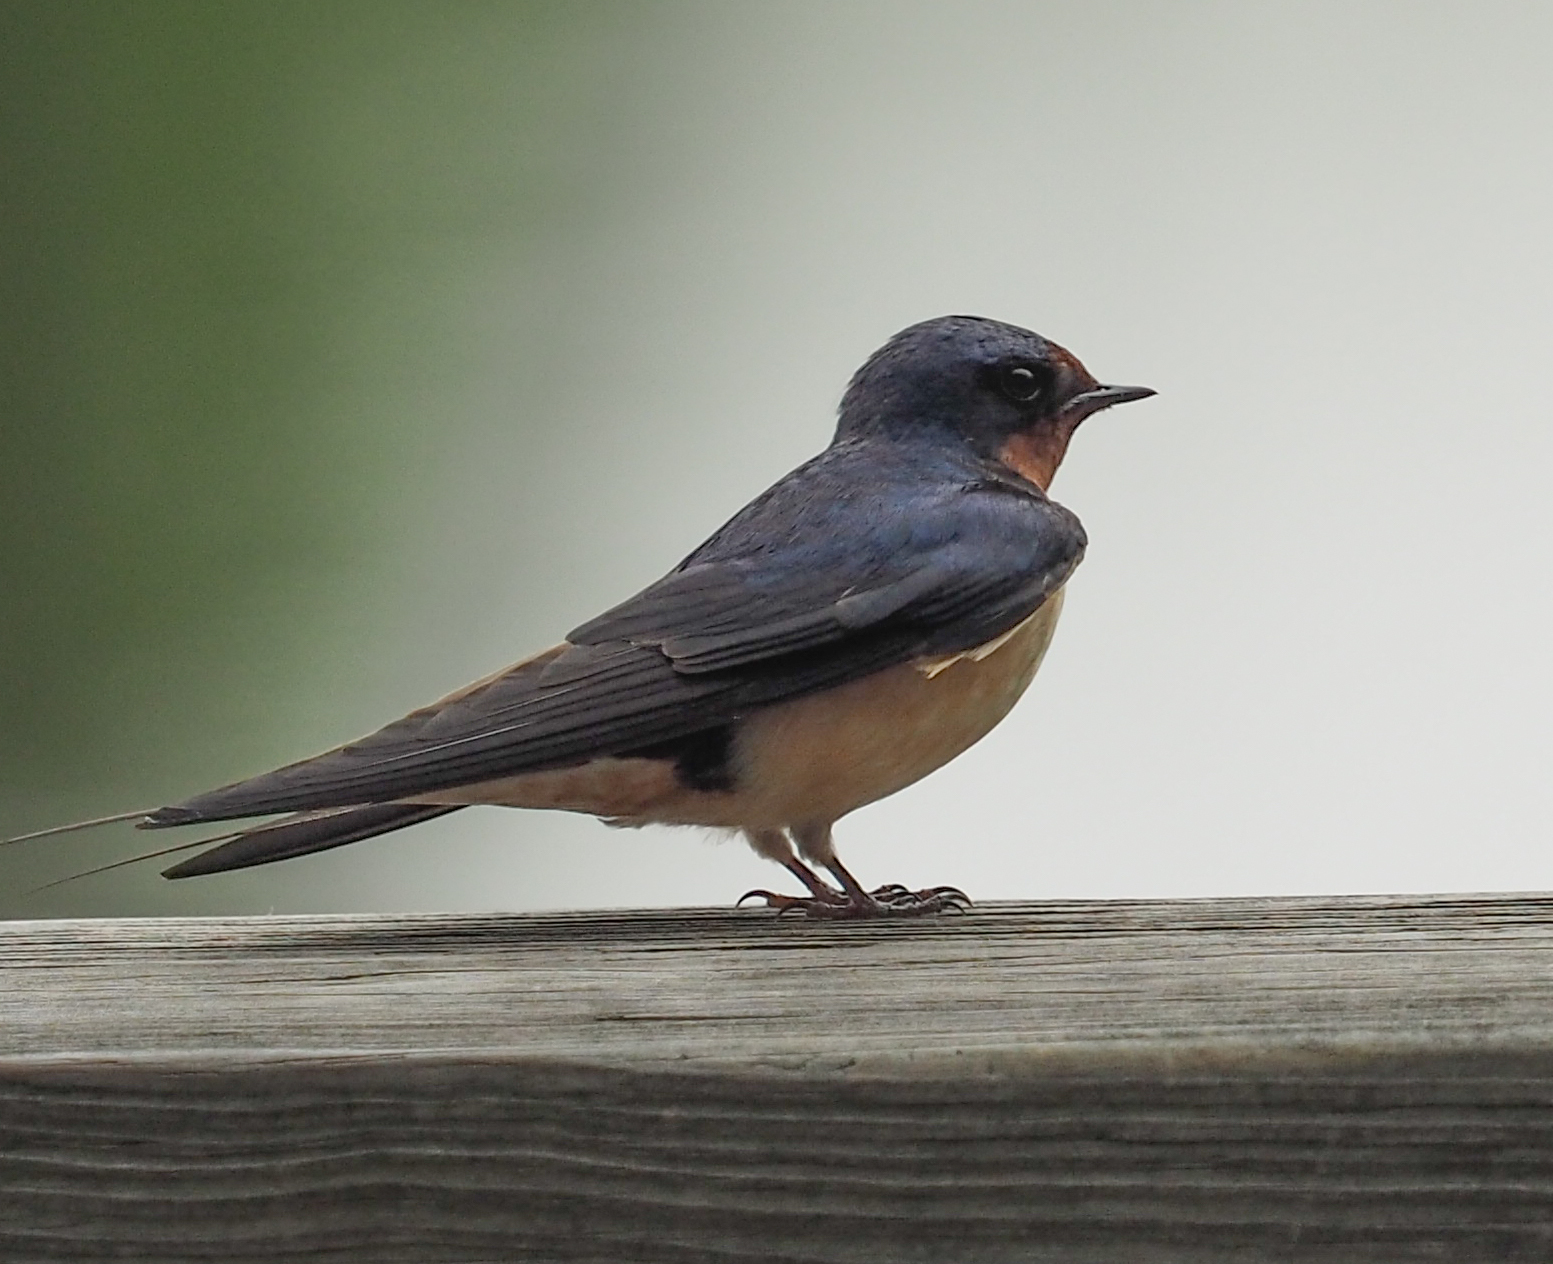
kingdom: Animalia
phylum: Chordata
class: Aves
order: Passeriformes
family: Hirundinidae
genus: Hirundo
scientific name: Hirundo rustica
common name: Barn swallow
